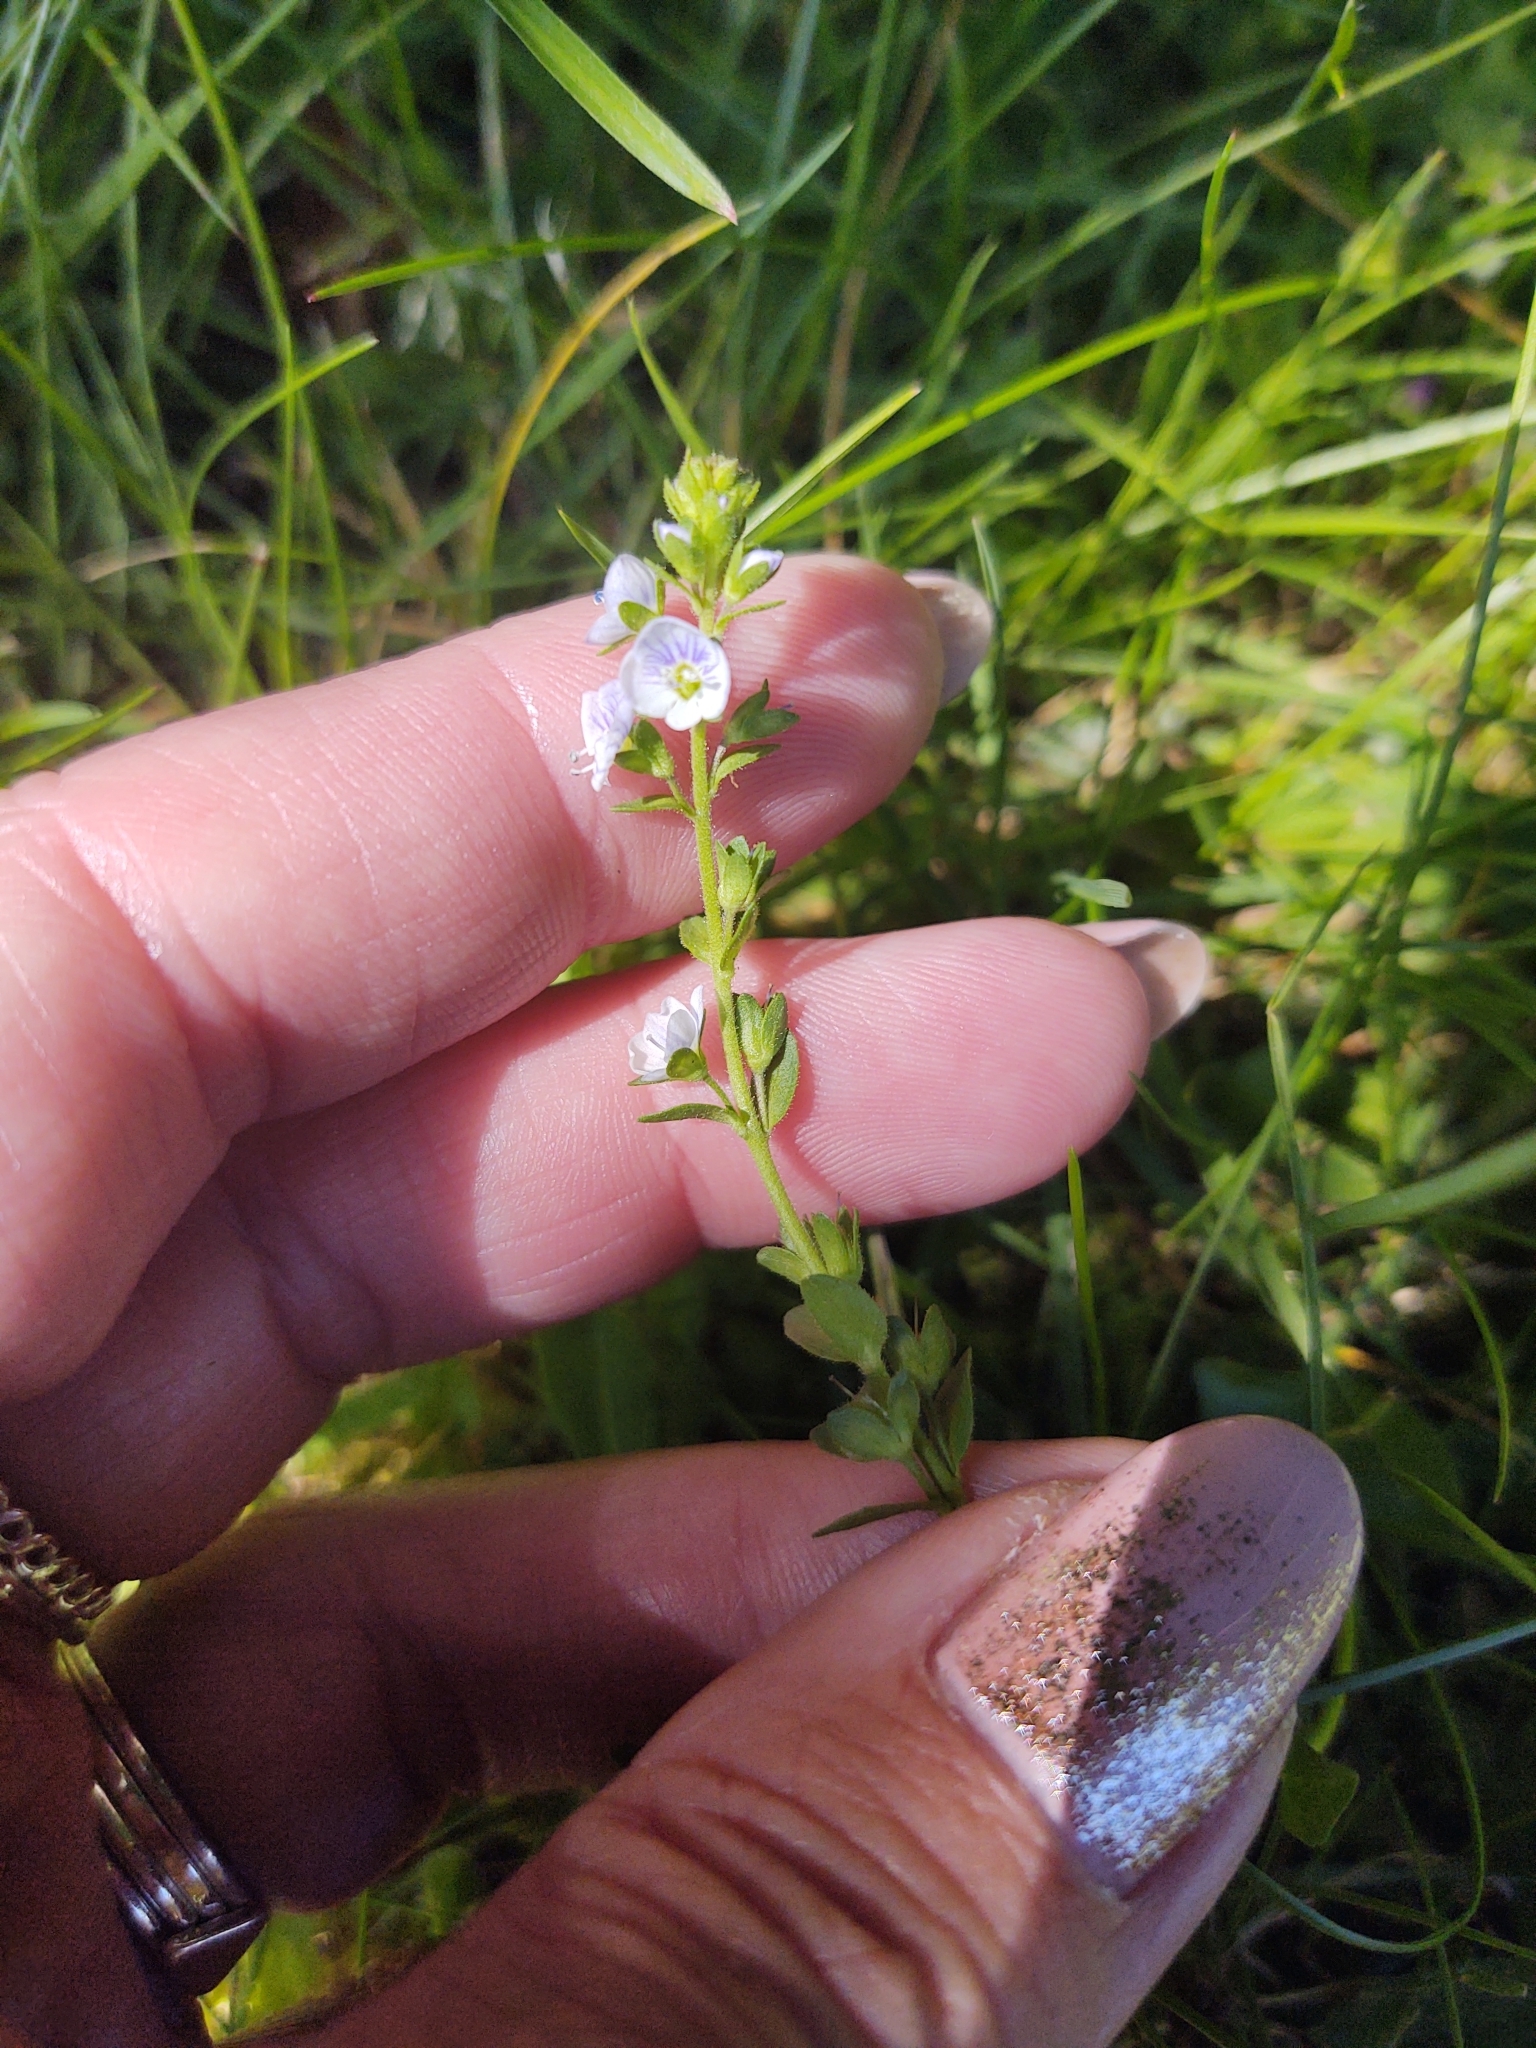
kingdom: Plantae
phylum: Tracheophyta
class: Magnoliopsida
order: Lamiales
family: Plantaginaceae
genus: Veronica
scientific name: Veronica serpyllifolia
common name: Thyme-leaved speedwell
